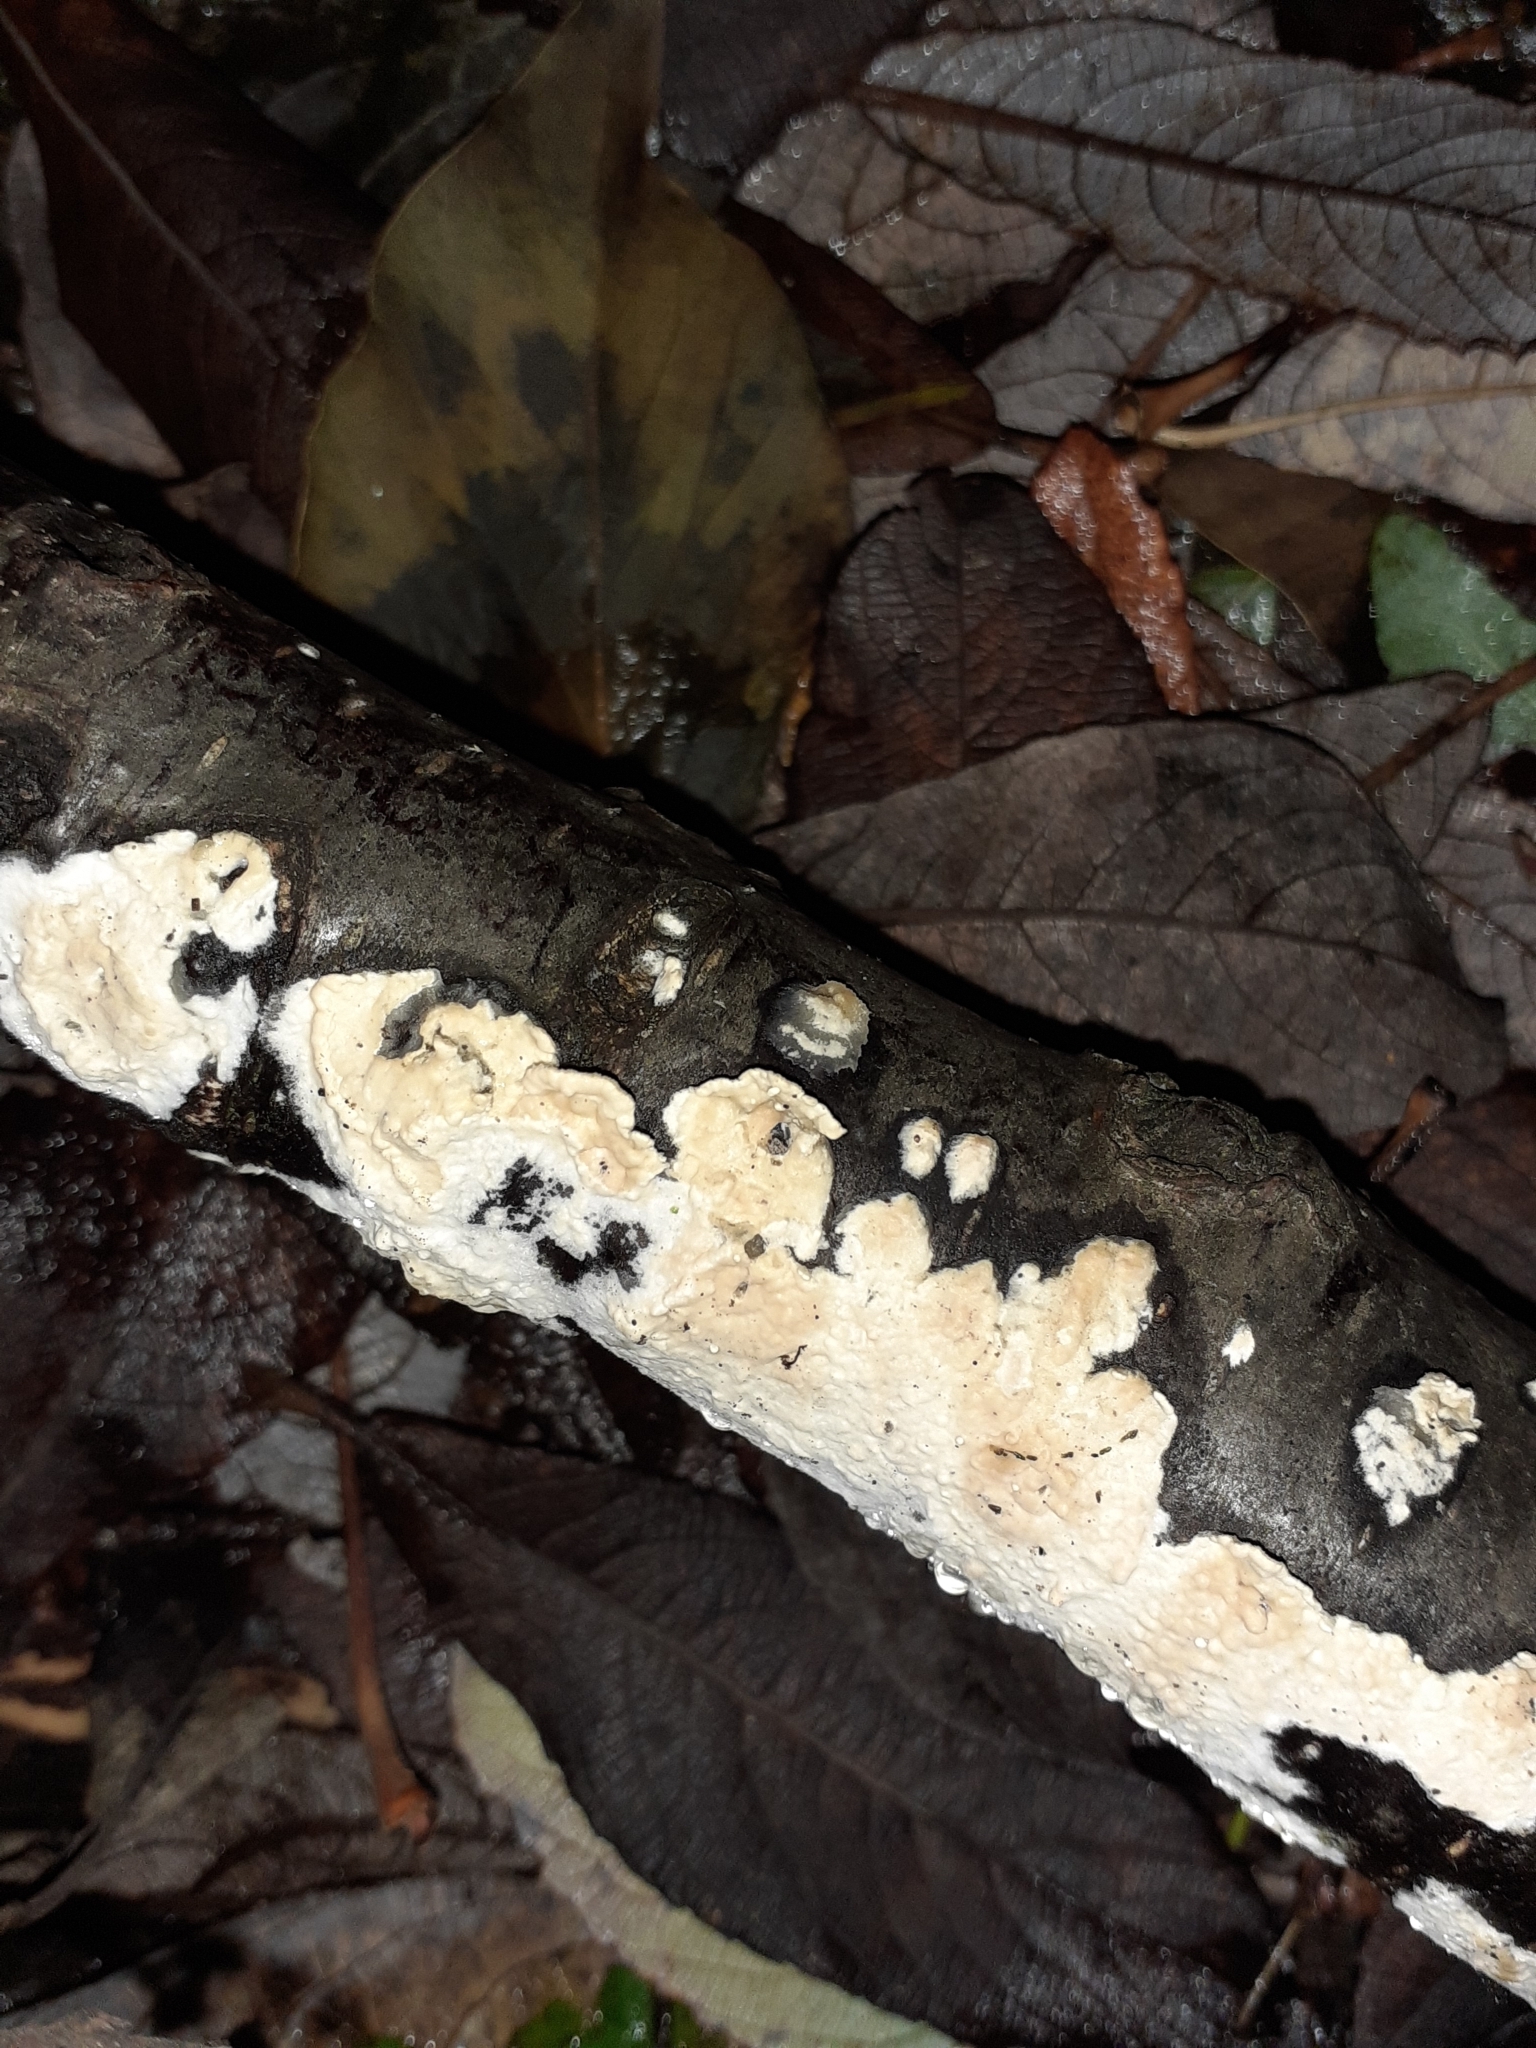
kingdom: Fungi
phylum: Basidiomycota
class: Agaricomycetes
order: Agaricales
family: Physalacriaceae
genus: Cylindrobasidium
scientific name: Cylindrobasidium laeve
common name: Tear dropper
